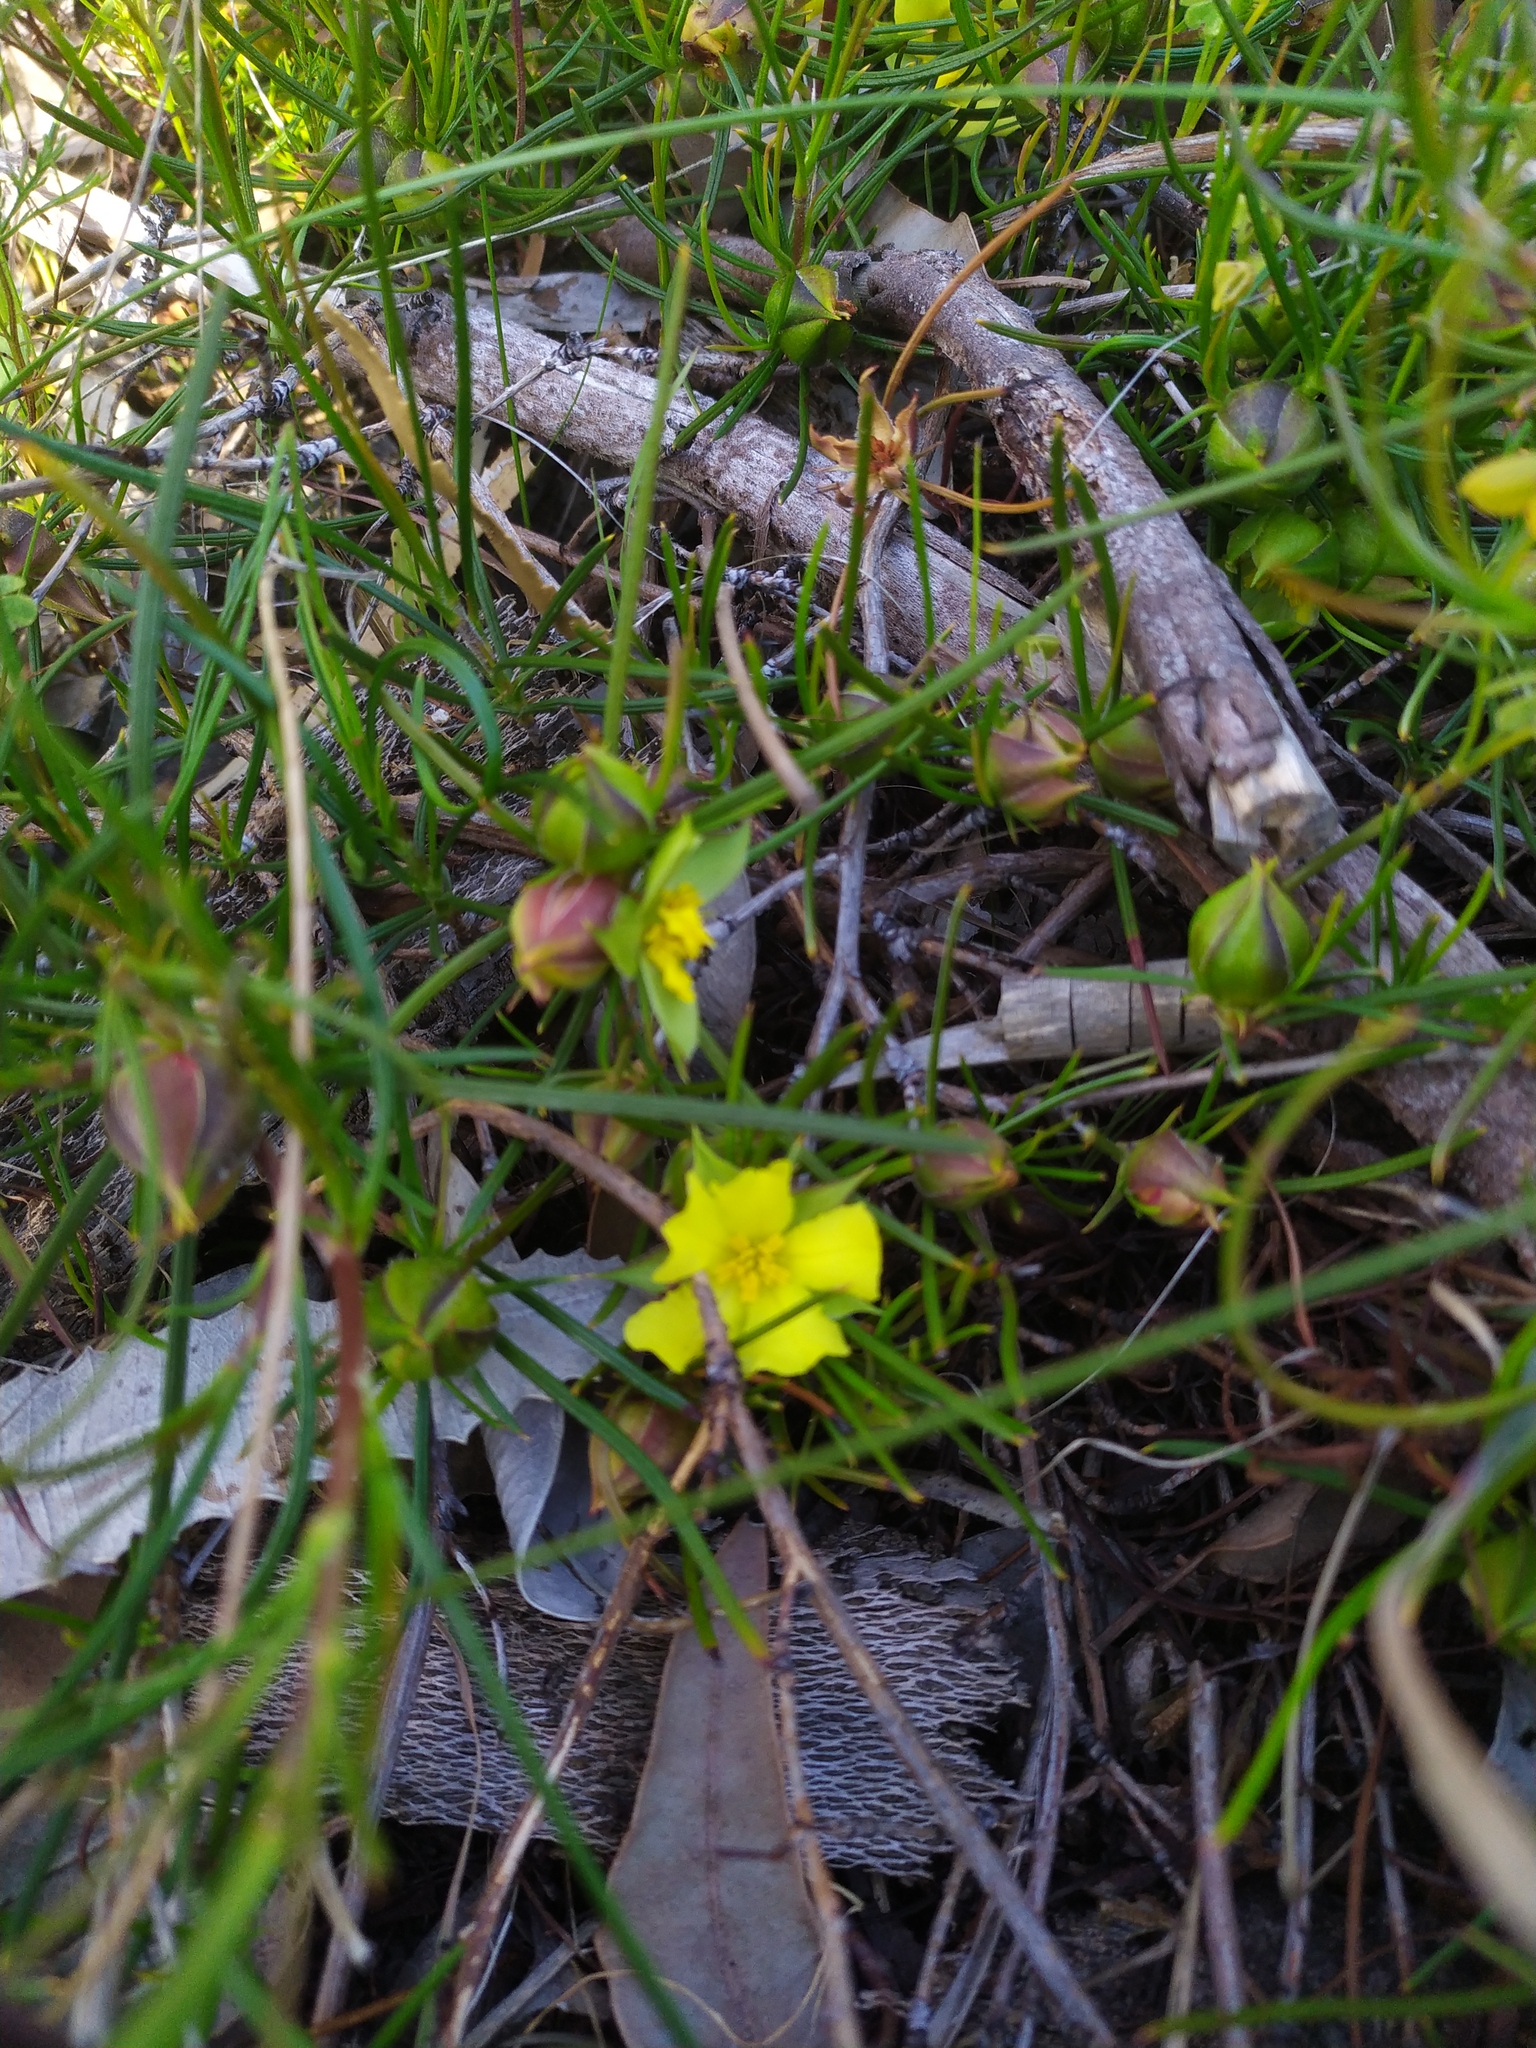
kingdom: Plantae
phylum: Tracheophyta
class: Magnoliopsida
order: Dilleniales
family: Dilleniaceae
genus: Hibbertia
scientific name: Hibbertia striata
